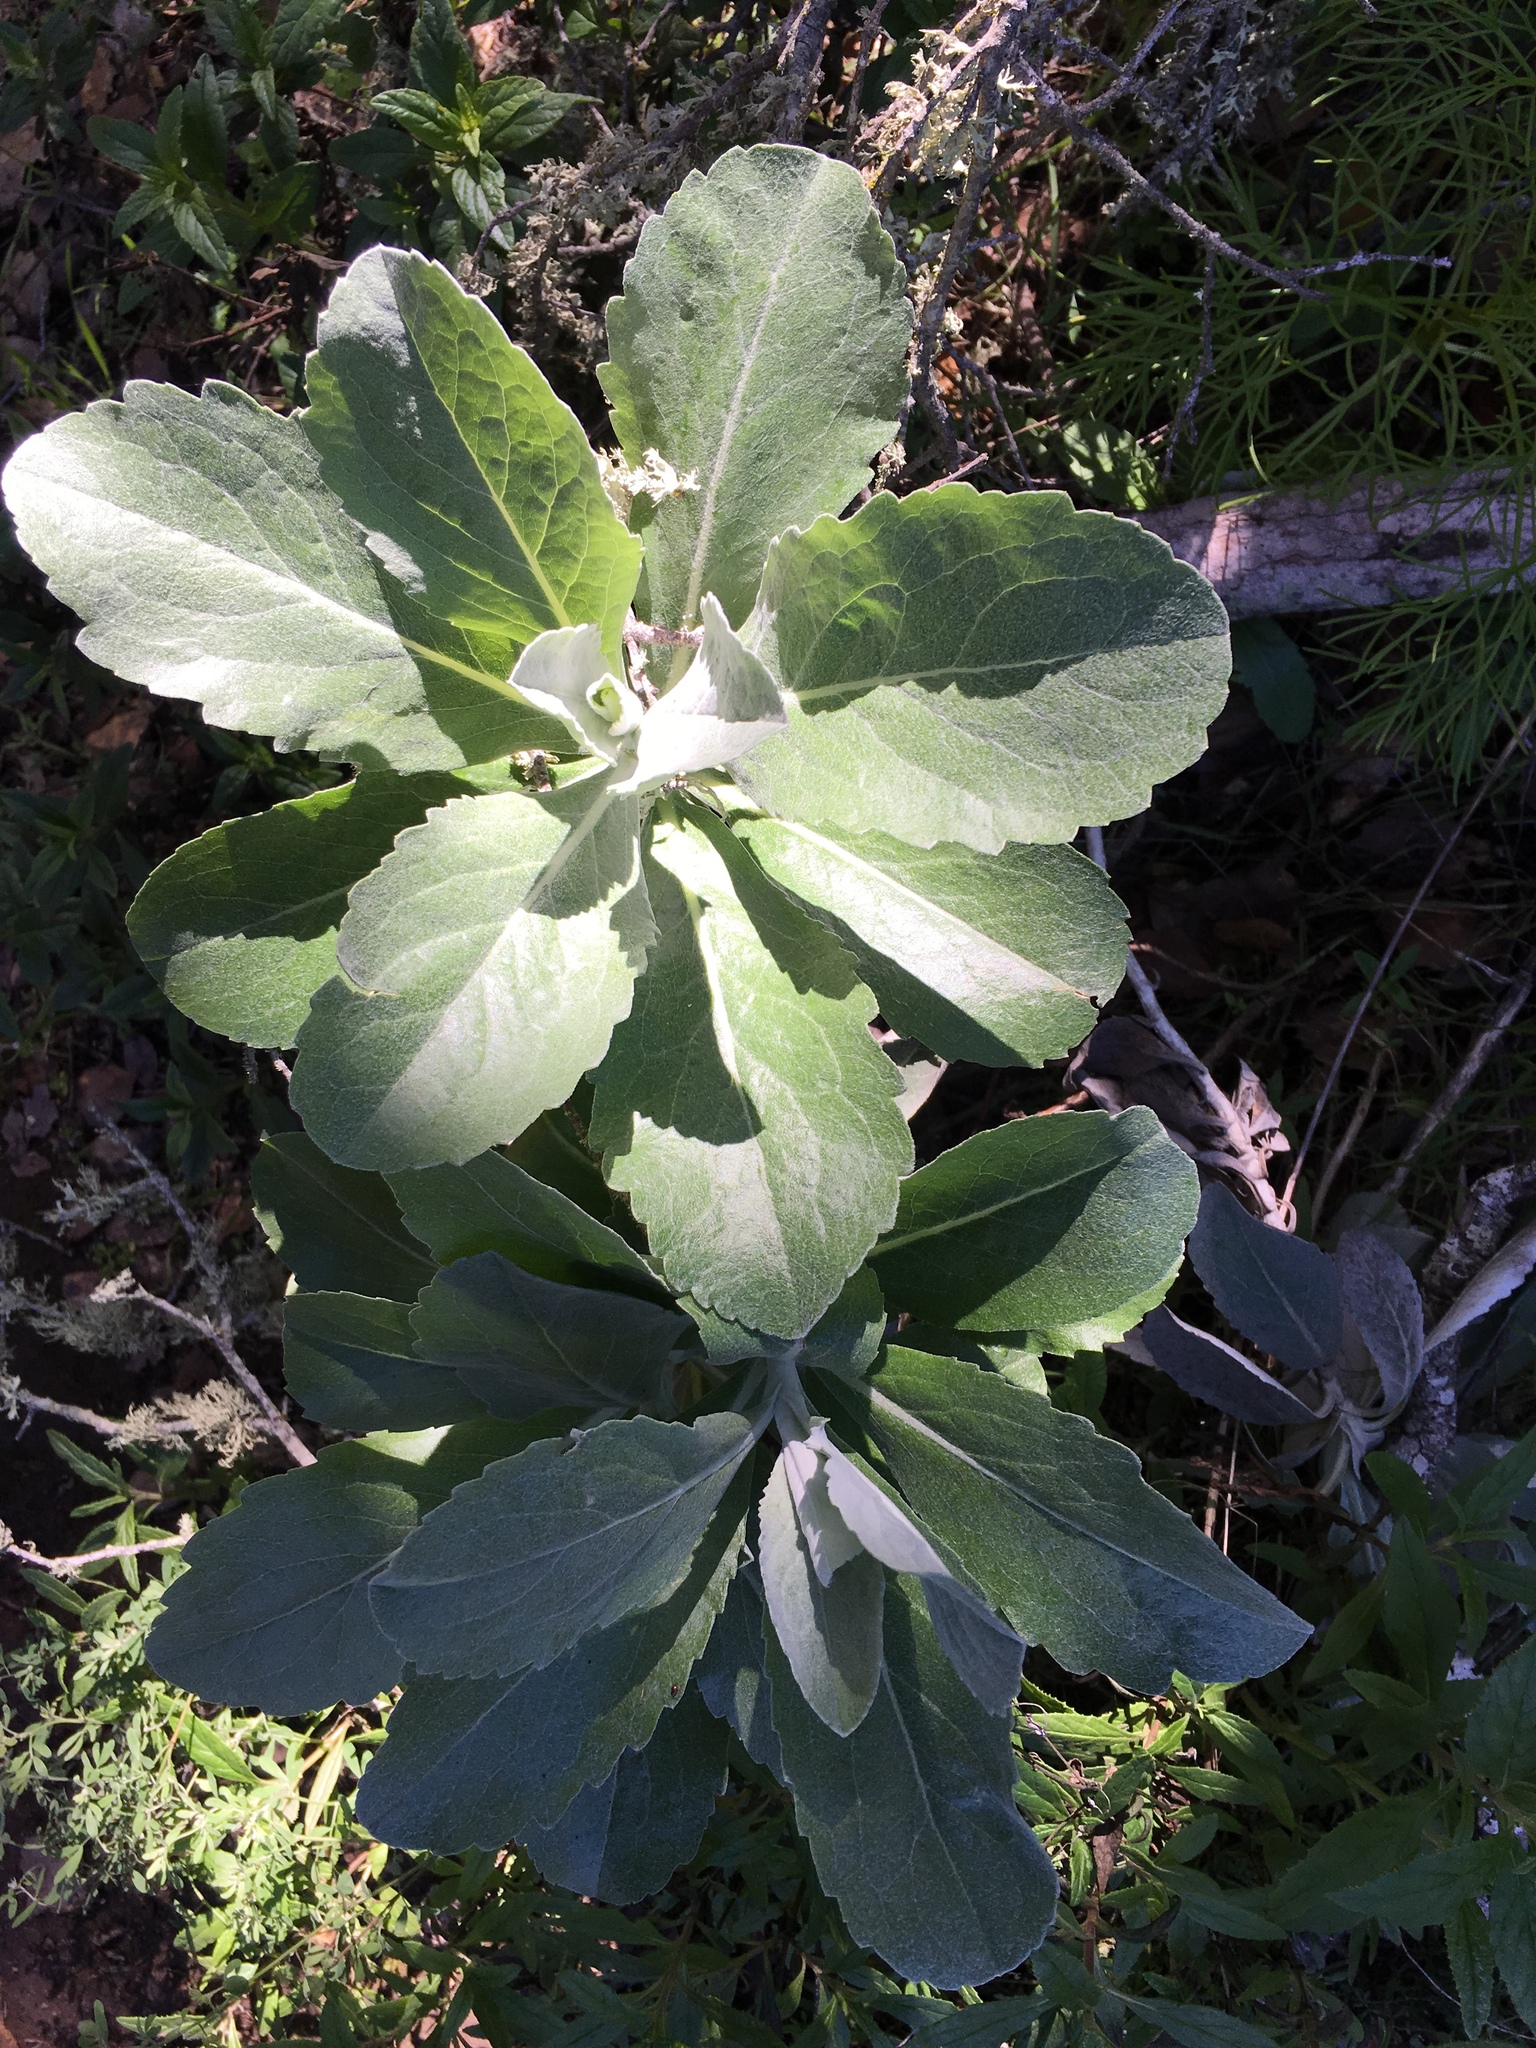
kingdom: Plantae
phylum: Tracheophyta
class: Magnoliopsida
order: Asterales
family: Asteraceae
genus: Hazardia
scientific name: Hazardia detonsa
